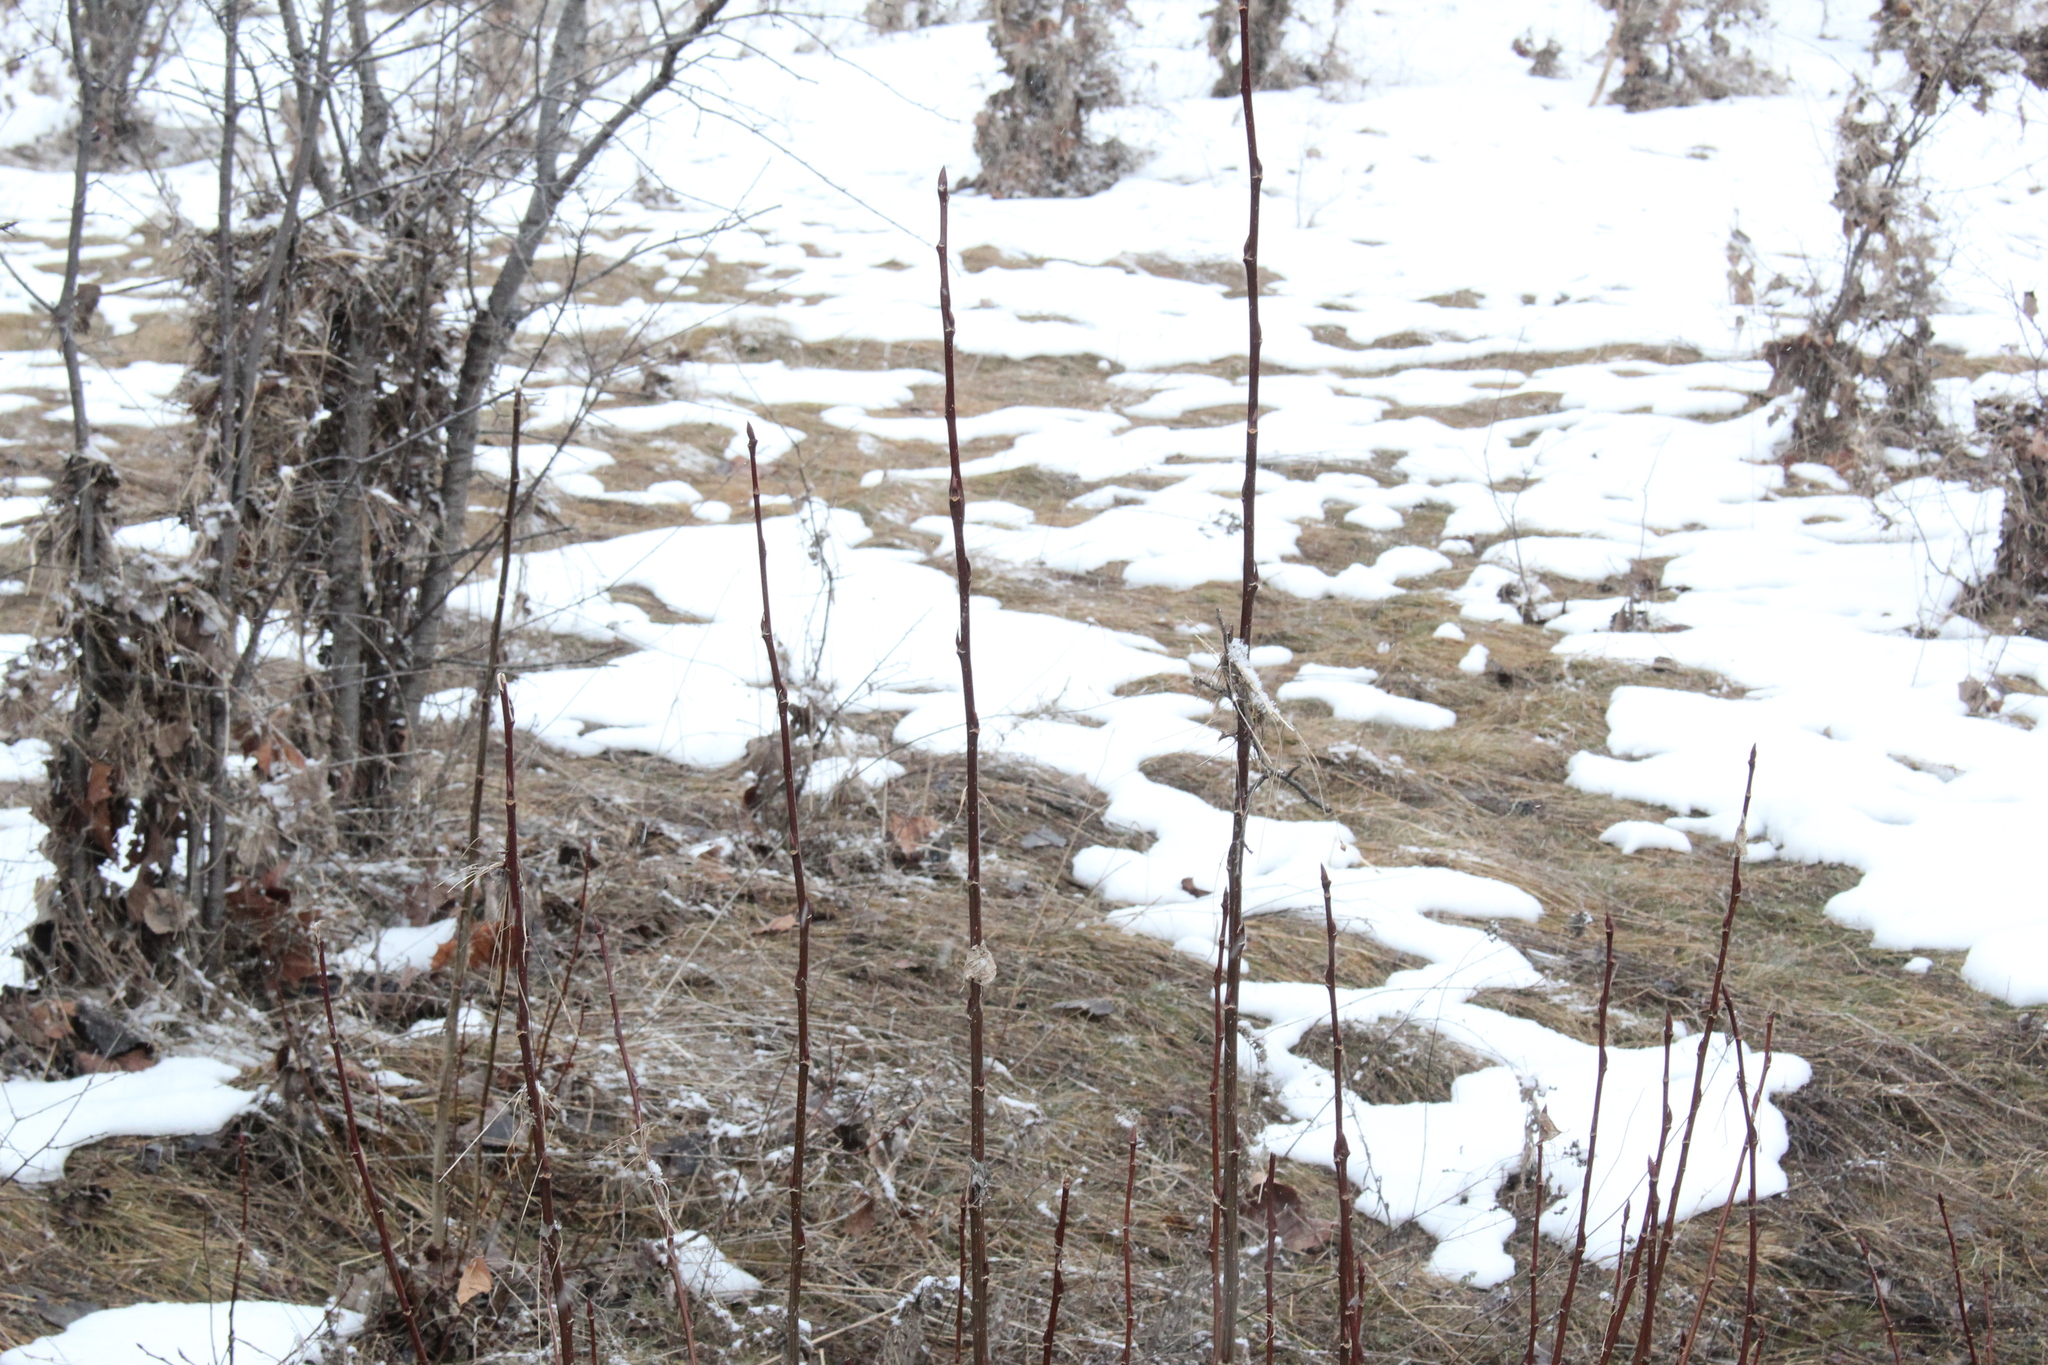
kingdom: Plantae
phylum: Tracheophyta
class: Magnoliopsida
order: Malpighiales
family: Salicaceae
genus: Populus
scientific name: Populus balsamifera
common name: Balsam poplar
